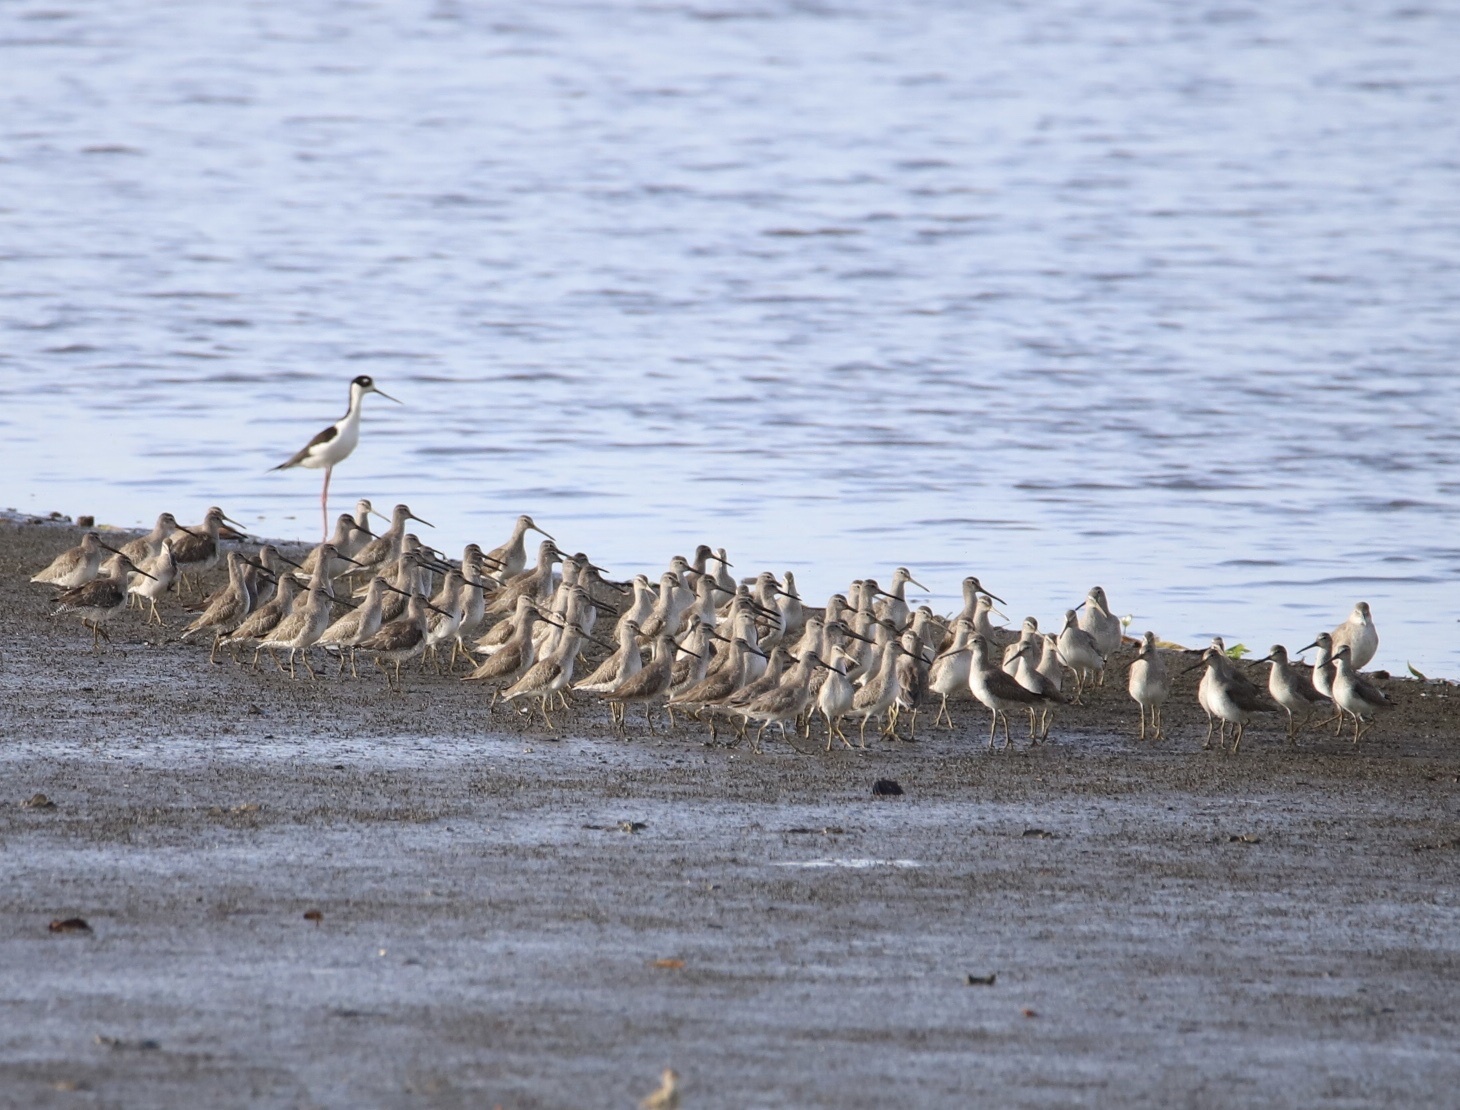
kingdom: Animalia
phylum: Chordata
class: Aves
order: Charadriiformes
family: Scolopacidae
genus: Limnodromus
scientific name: Limnodromus griseus
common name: Short-billed dowitcher
